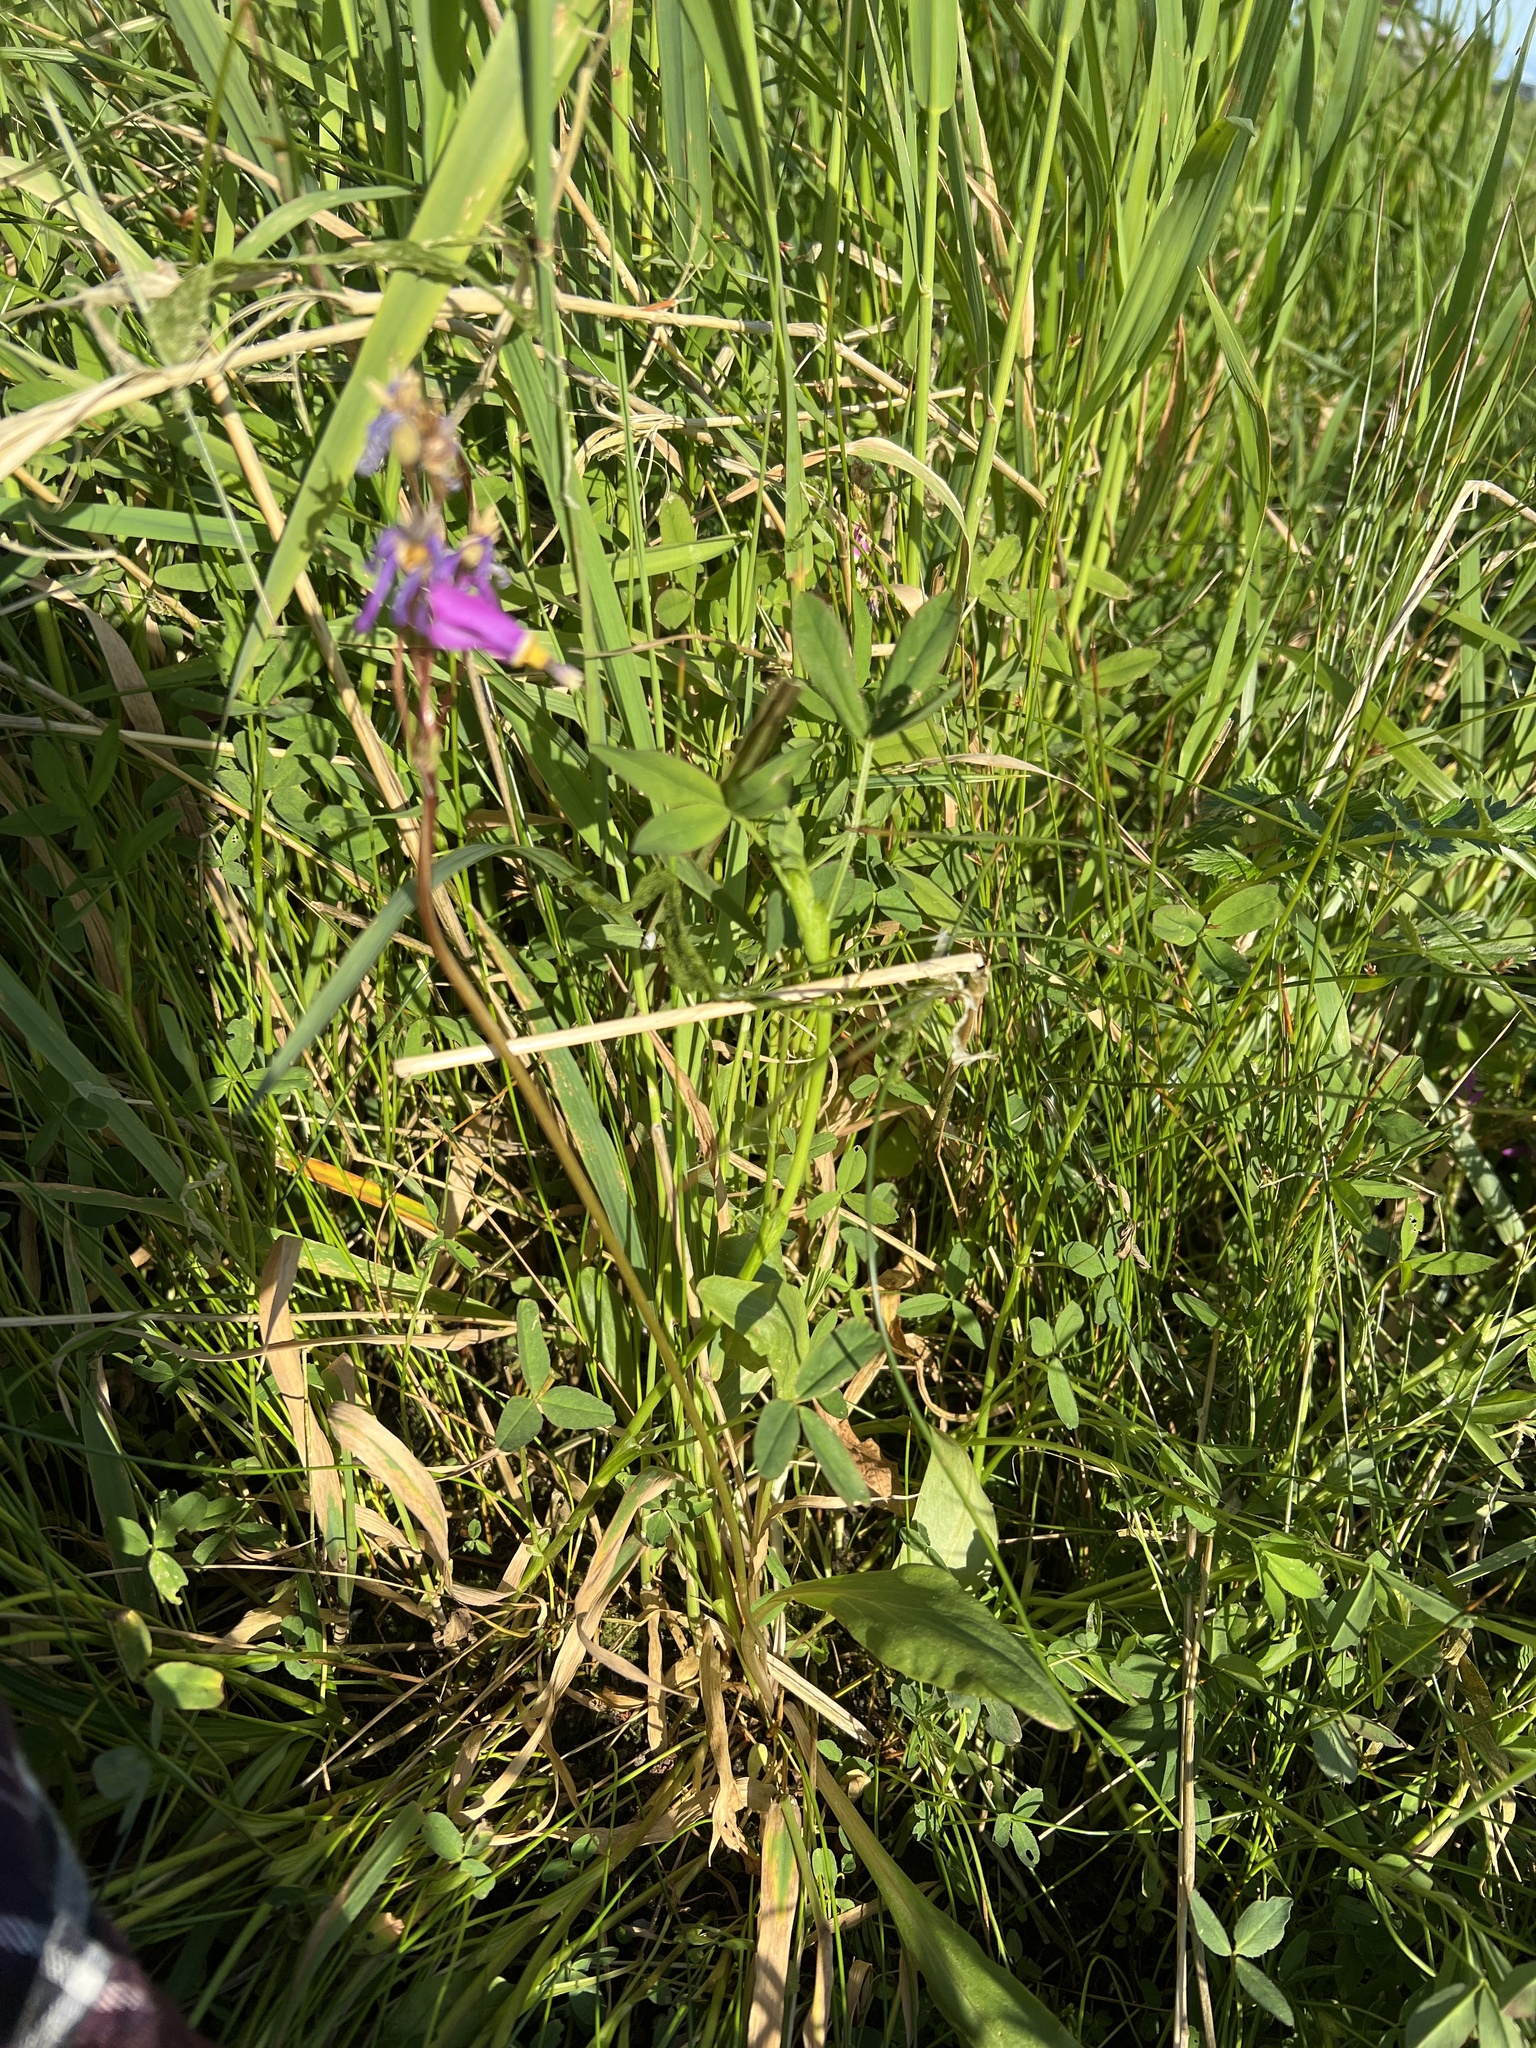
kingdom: Plantae
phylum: Tracheophyta
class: Magnoliopsida
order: Ericales
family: Primulaceae
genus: Dodecatheon
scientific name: Dodecatheon pulchellum
